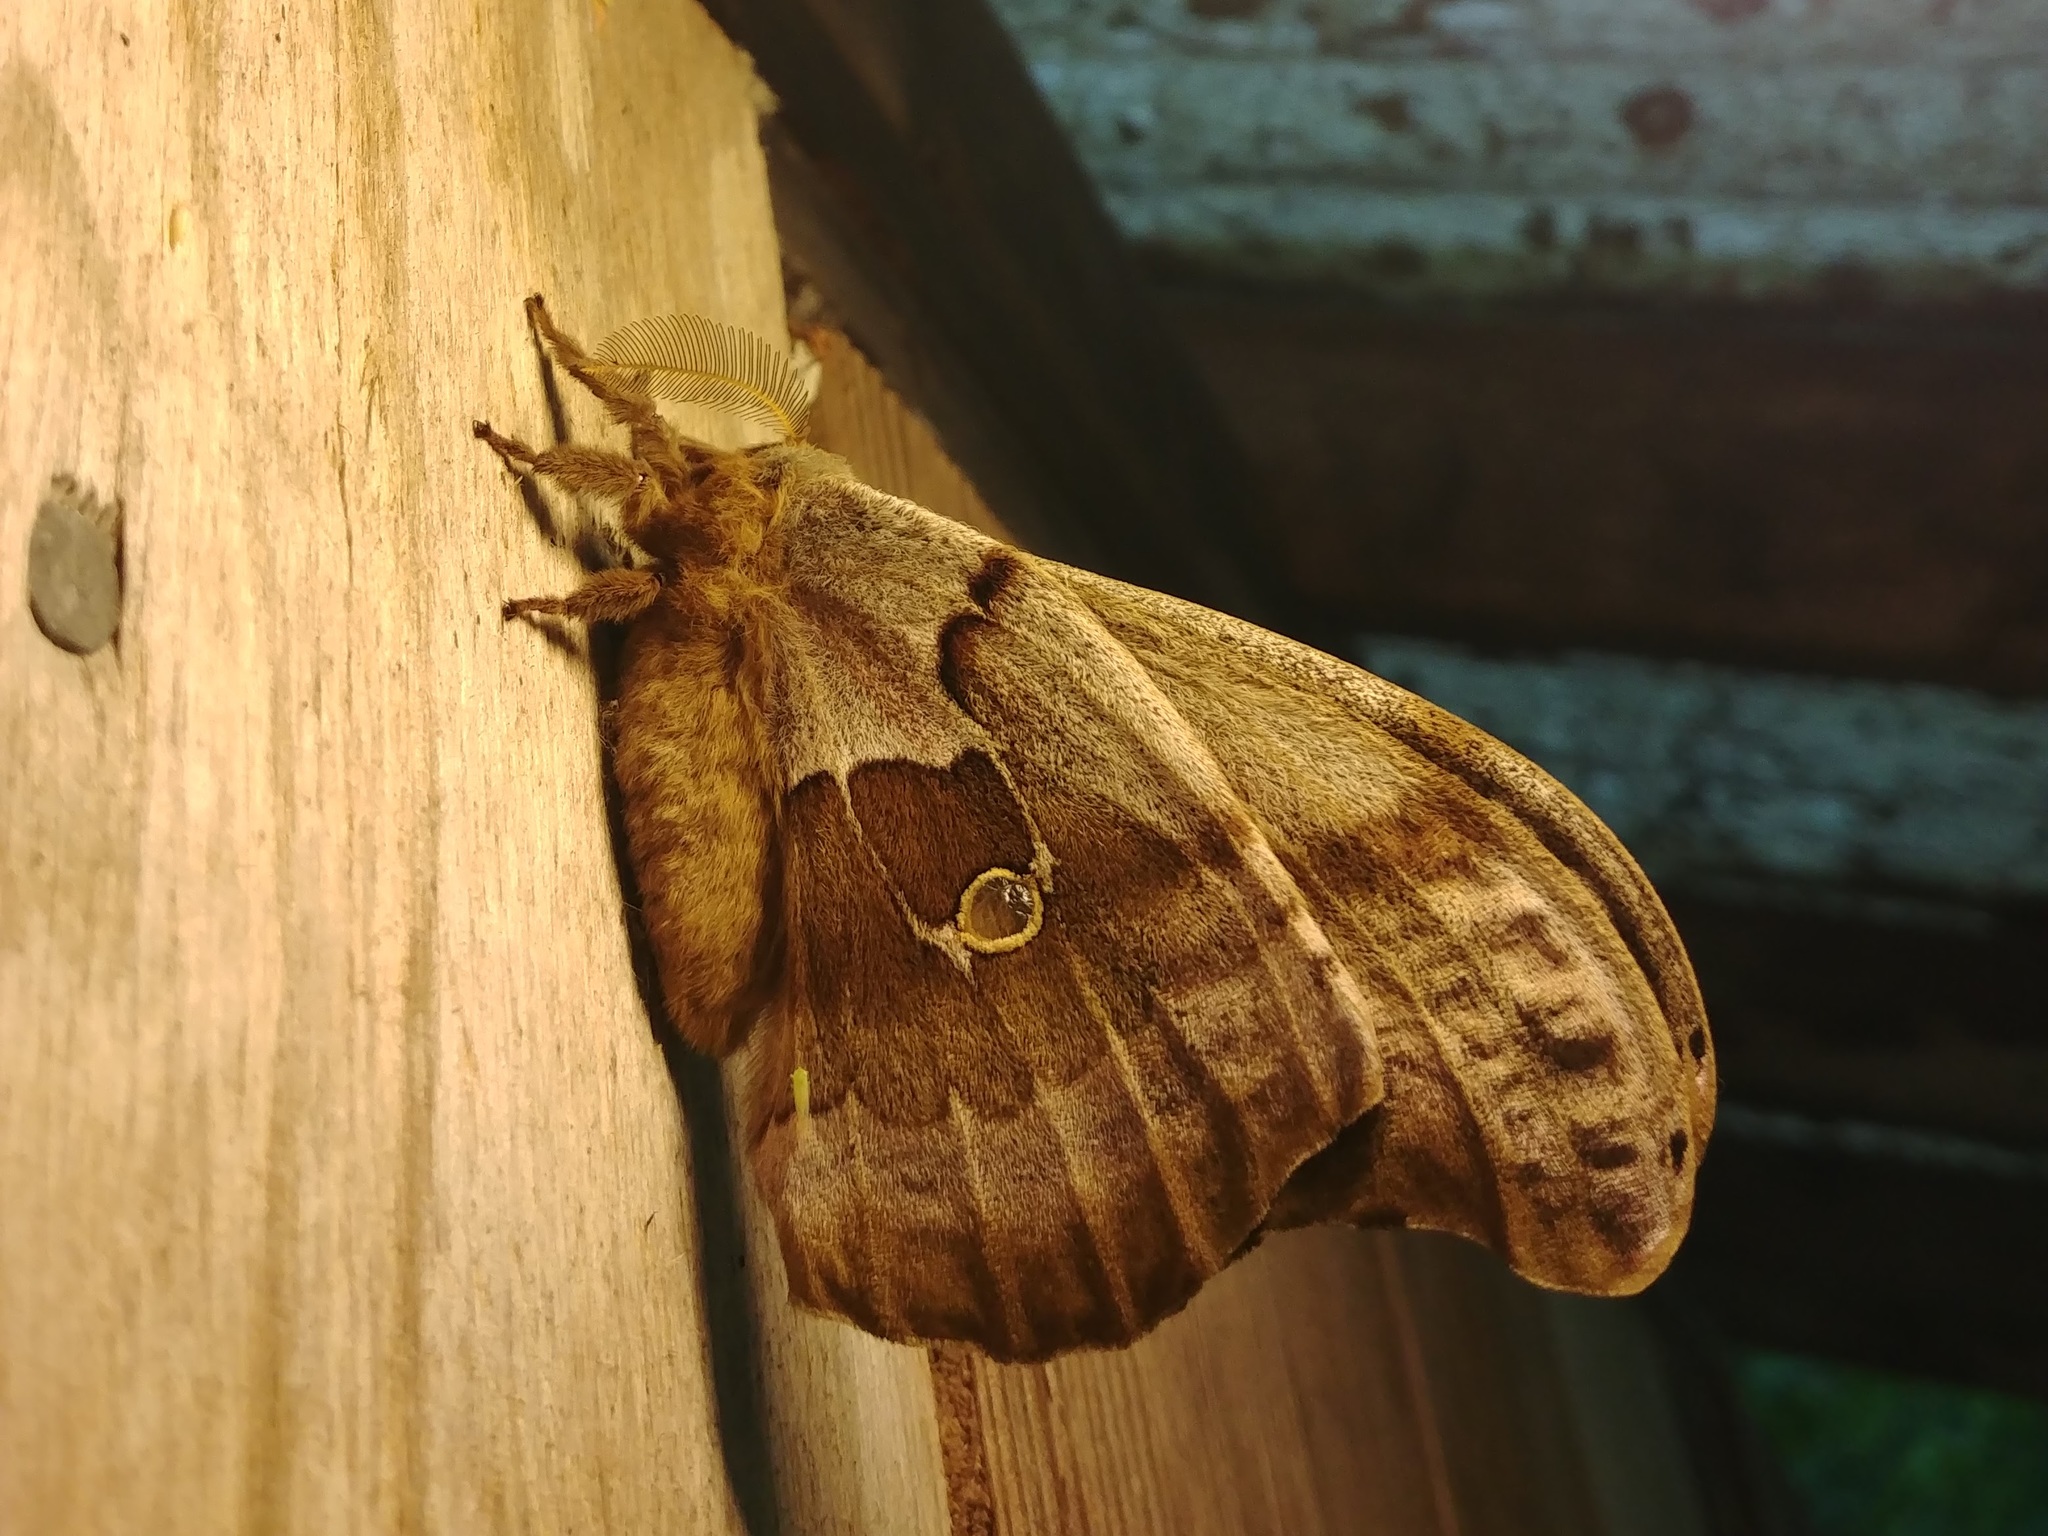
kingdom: Animalia
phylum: Arthropoda
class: Insecta
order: Lepidoptera
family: Saturniidae
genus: Antheraea
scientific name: Antheraea polyphemus
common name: Polyphemus moth
